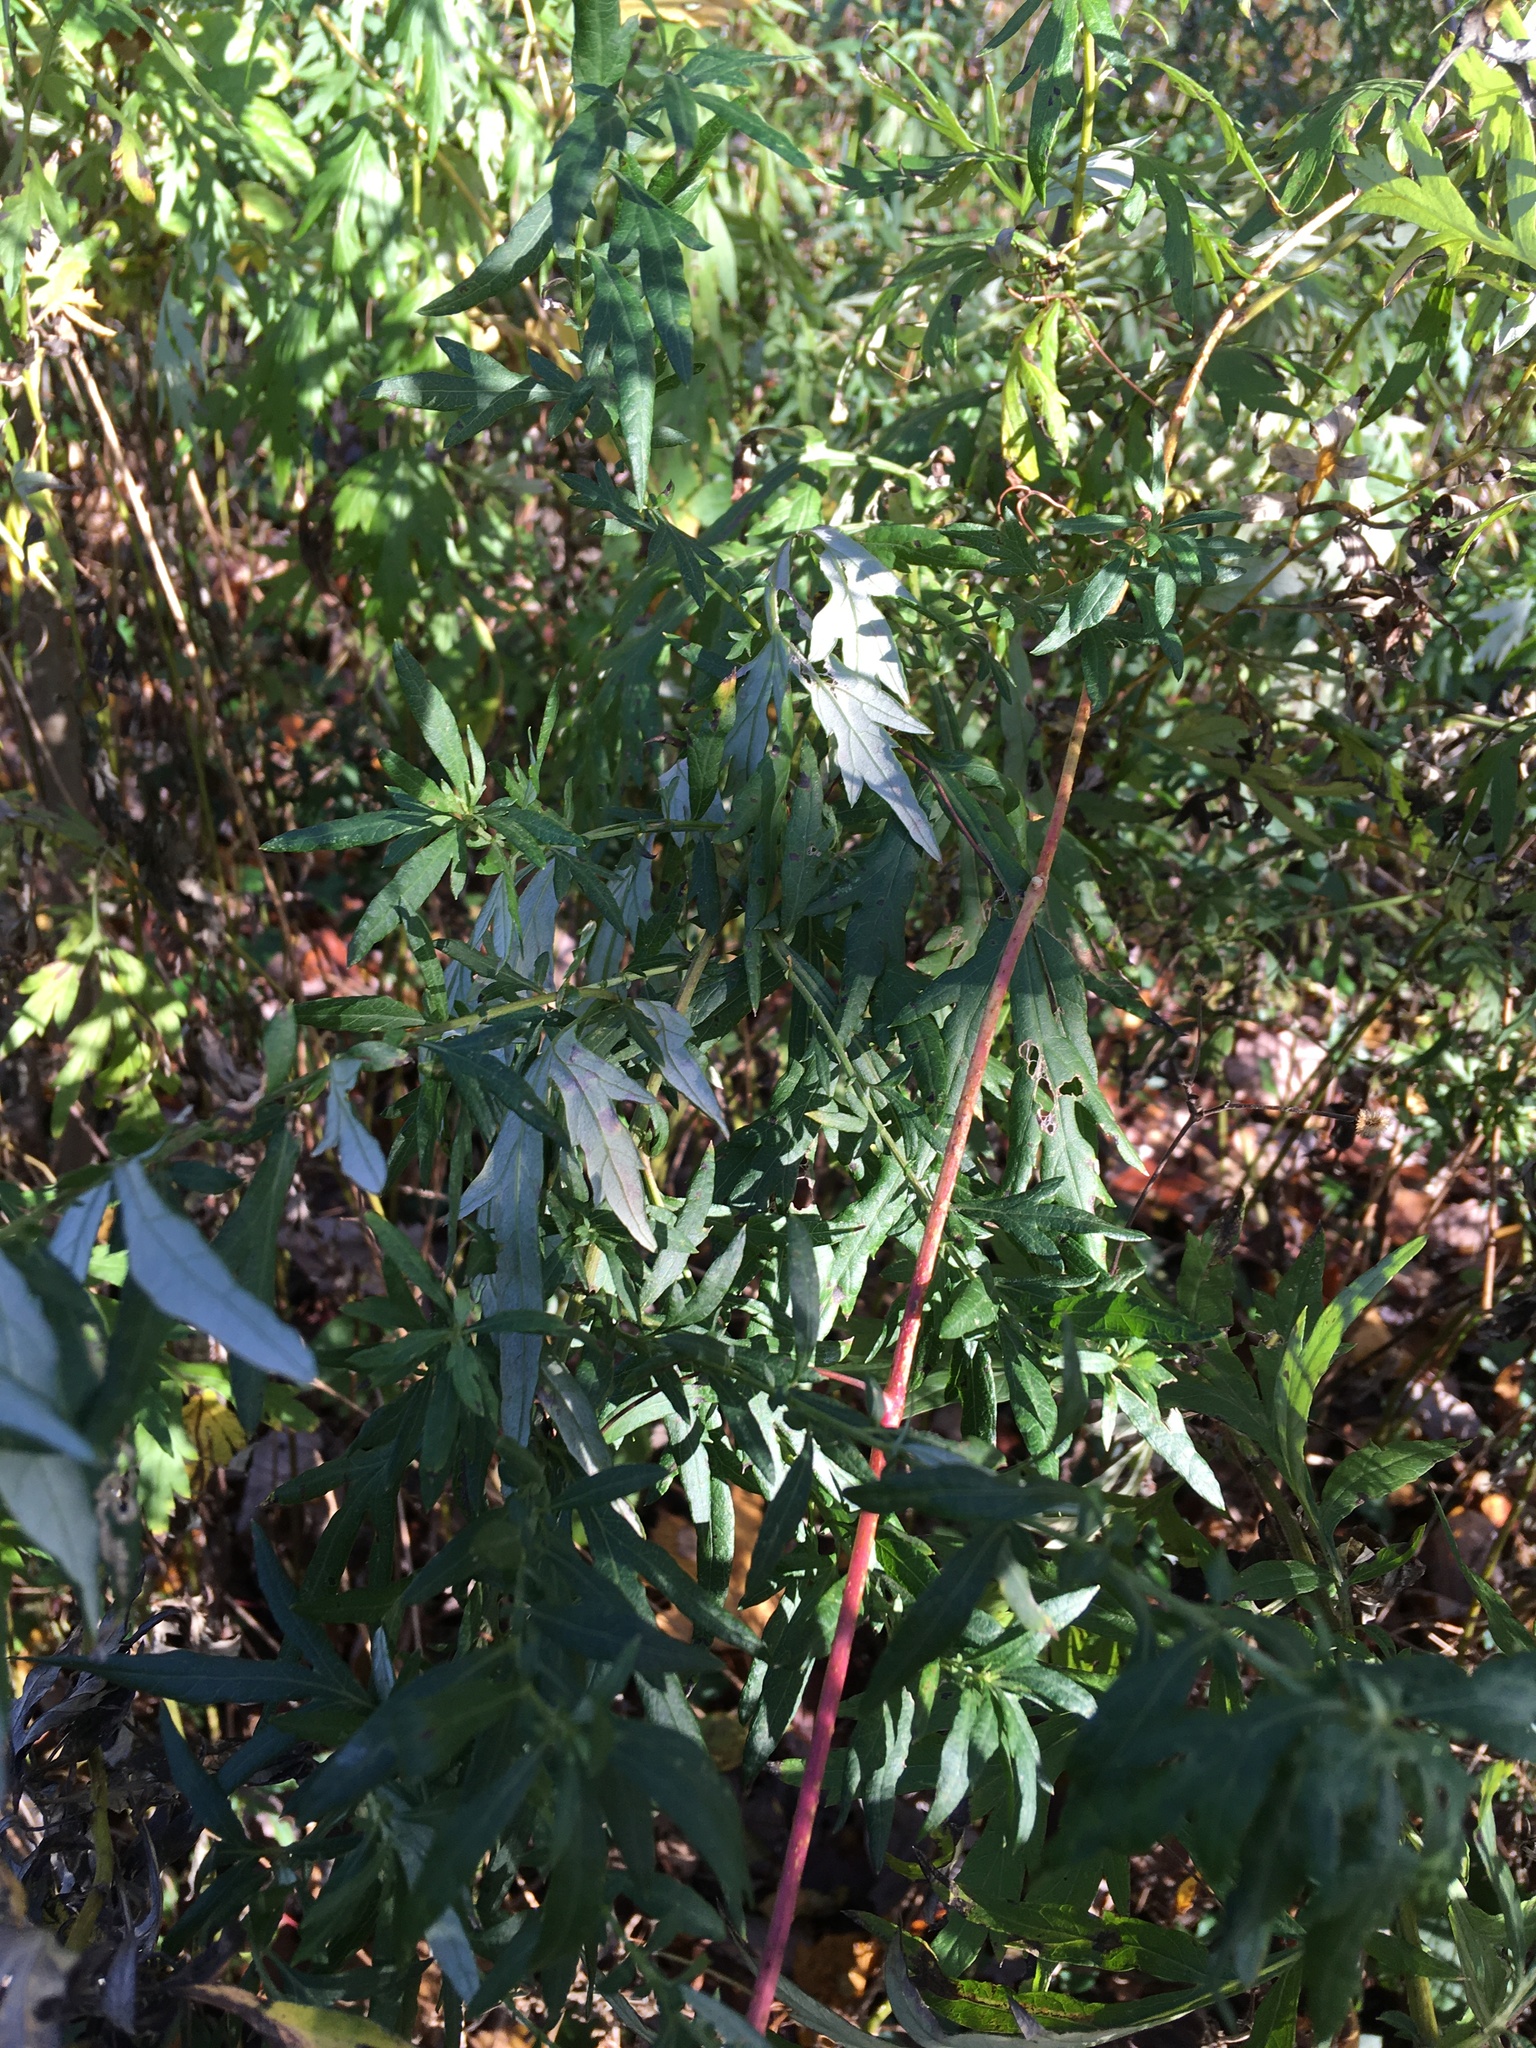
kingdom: Plantae
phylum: Tracheophyta
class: Magnoliopsida
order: Asterales
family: Asteraceae
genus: Artemisia
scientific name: Artemisia vulgaris
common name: Mugwort
